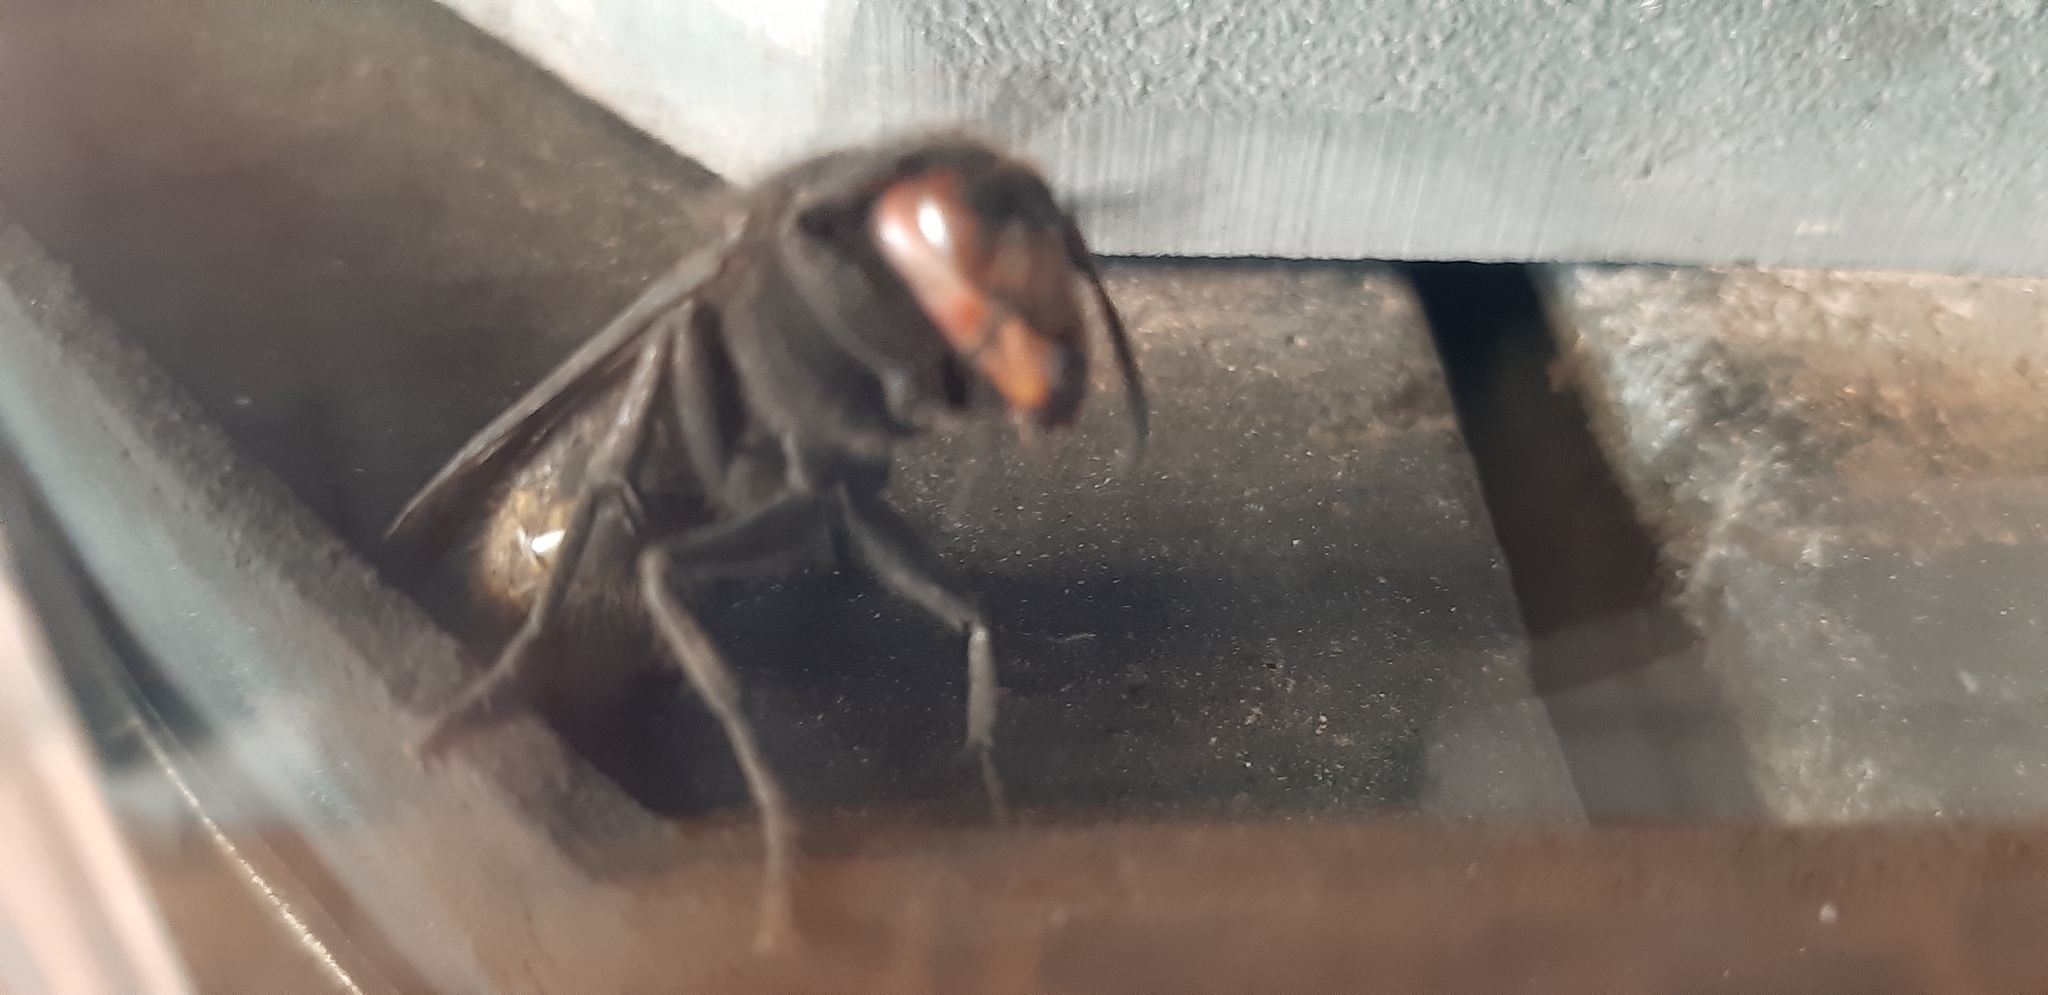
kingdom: Animalia
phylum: Arthropoda
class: Insecta
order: Hymenoptera
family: Vespidae
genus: Vespa
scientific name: Vespa crabro
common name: Hornet
